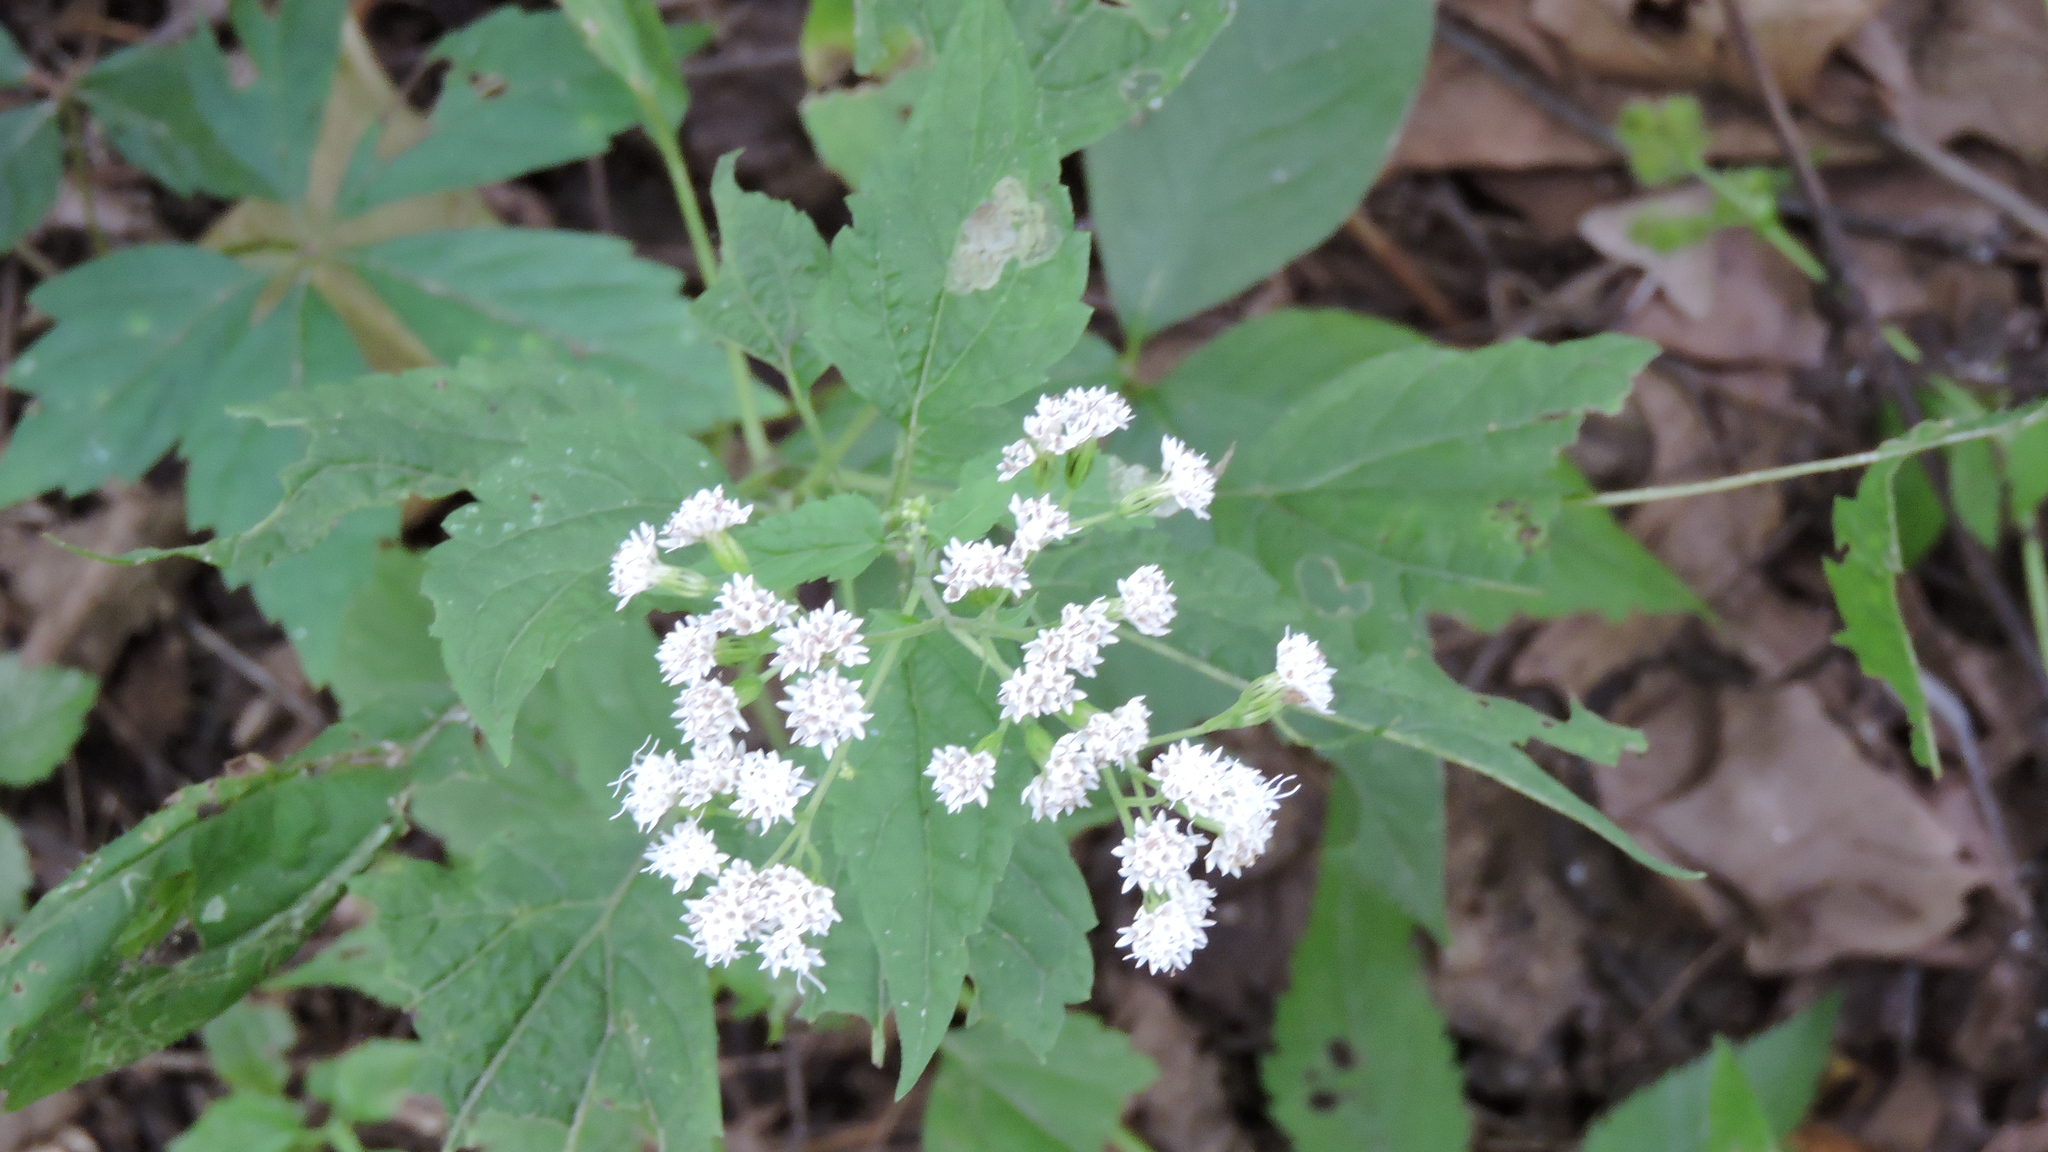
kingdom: Plantae
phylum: Tracheophyta
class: Magnoliopsida
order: Asterales
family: Asteraceae
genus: Ageratina
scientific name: Ageratina altissima
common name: White snakeroot
